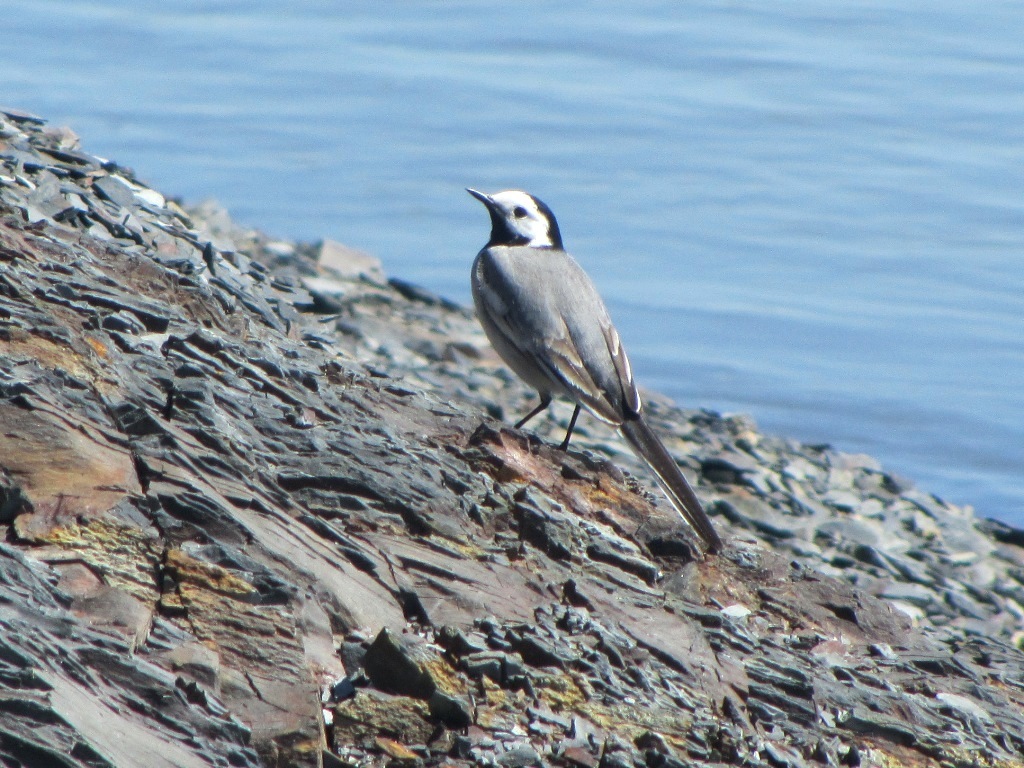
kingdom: Animalia
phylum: Chordata
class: Aves
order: Passeriformes
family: Motacillidae
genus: Motacilla
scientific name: Motacilla alba
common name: White wagtail
